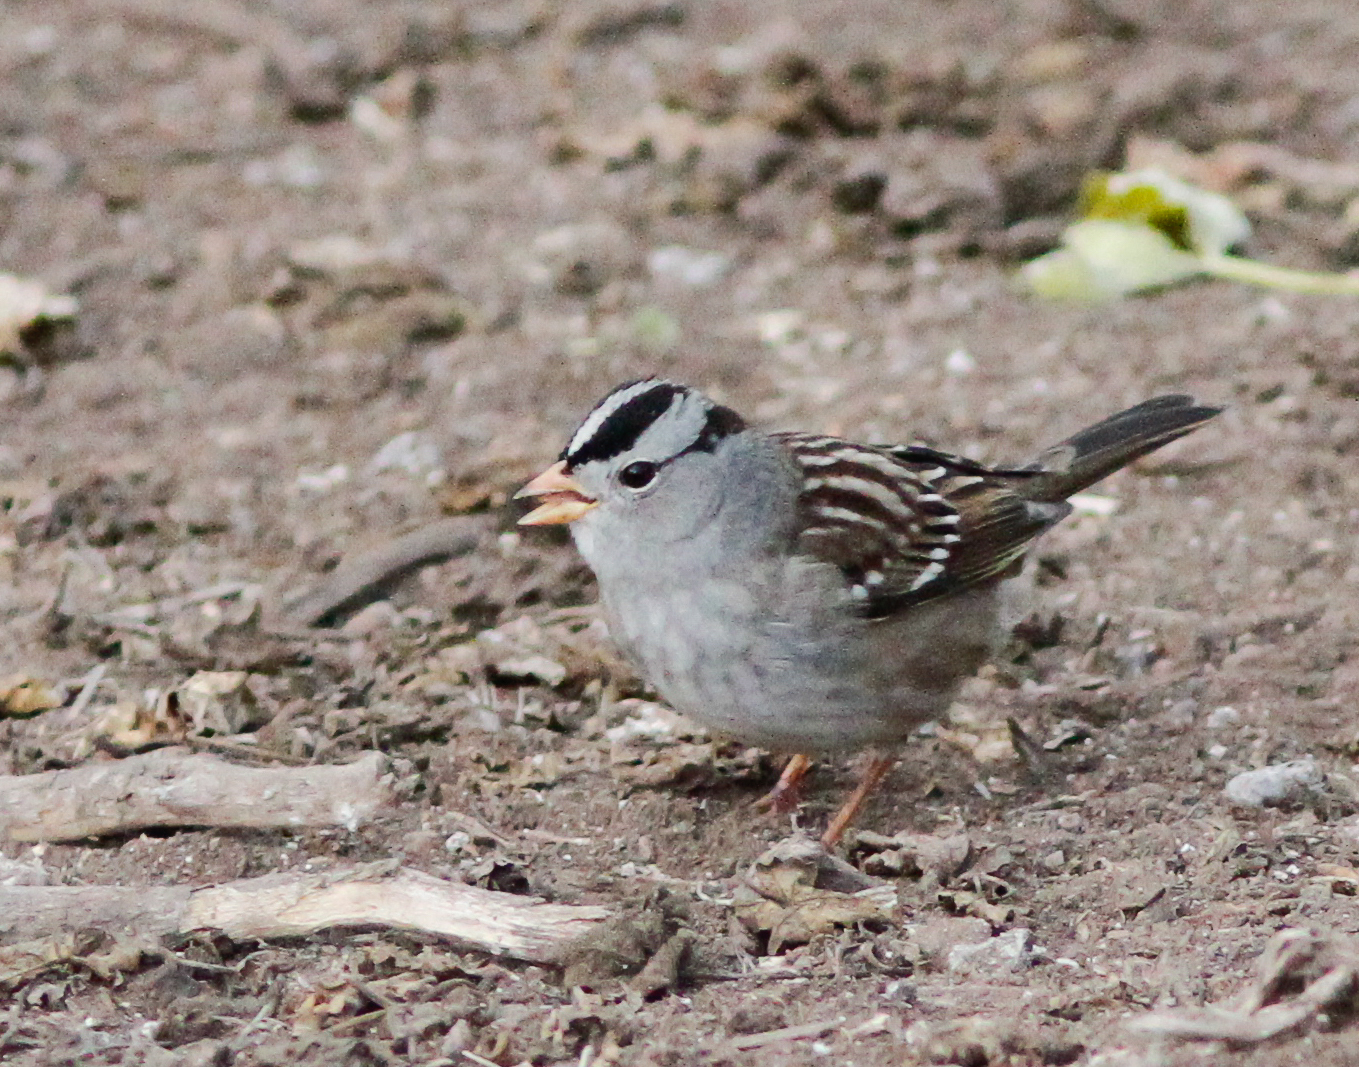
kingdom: Animalia
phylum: Chordata
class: Aves
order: Passeriformes
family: Passerellidae
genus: Zonotrichia
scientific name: Zonotrichia leucophrys
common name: White-crowned sparrow
